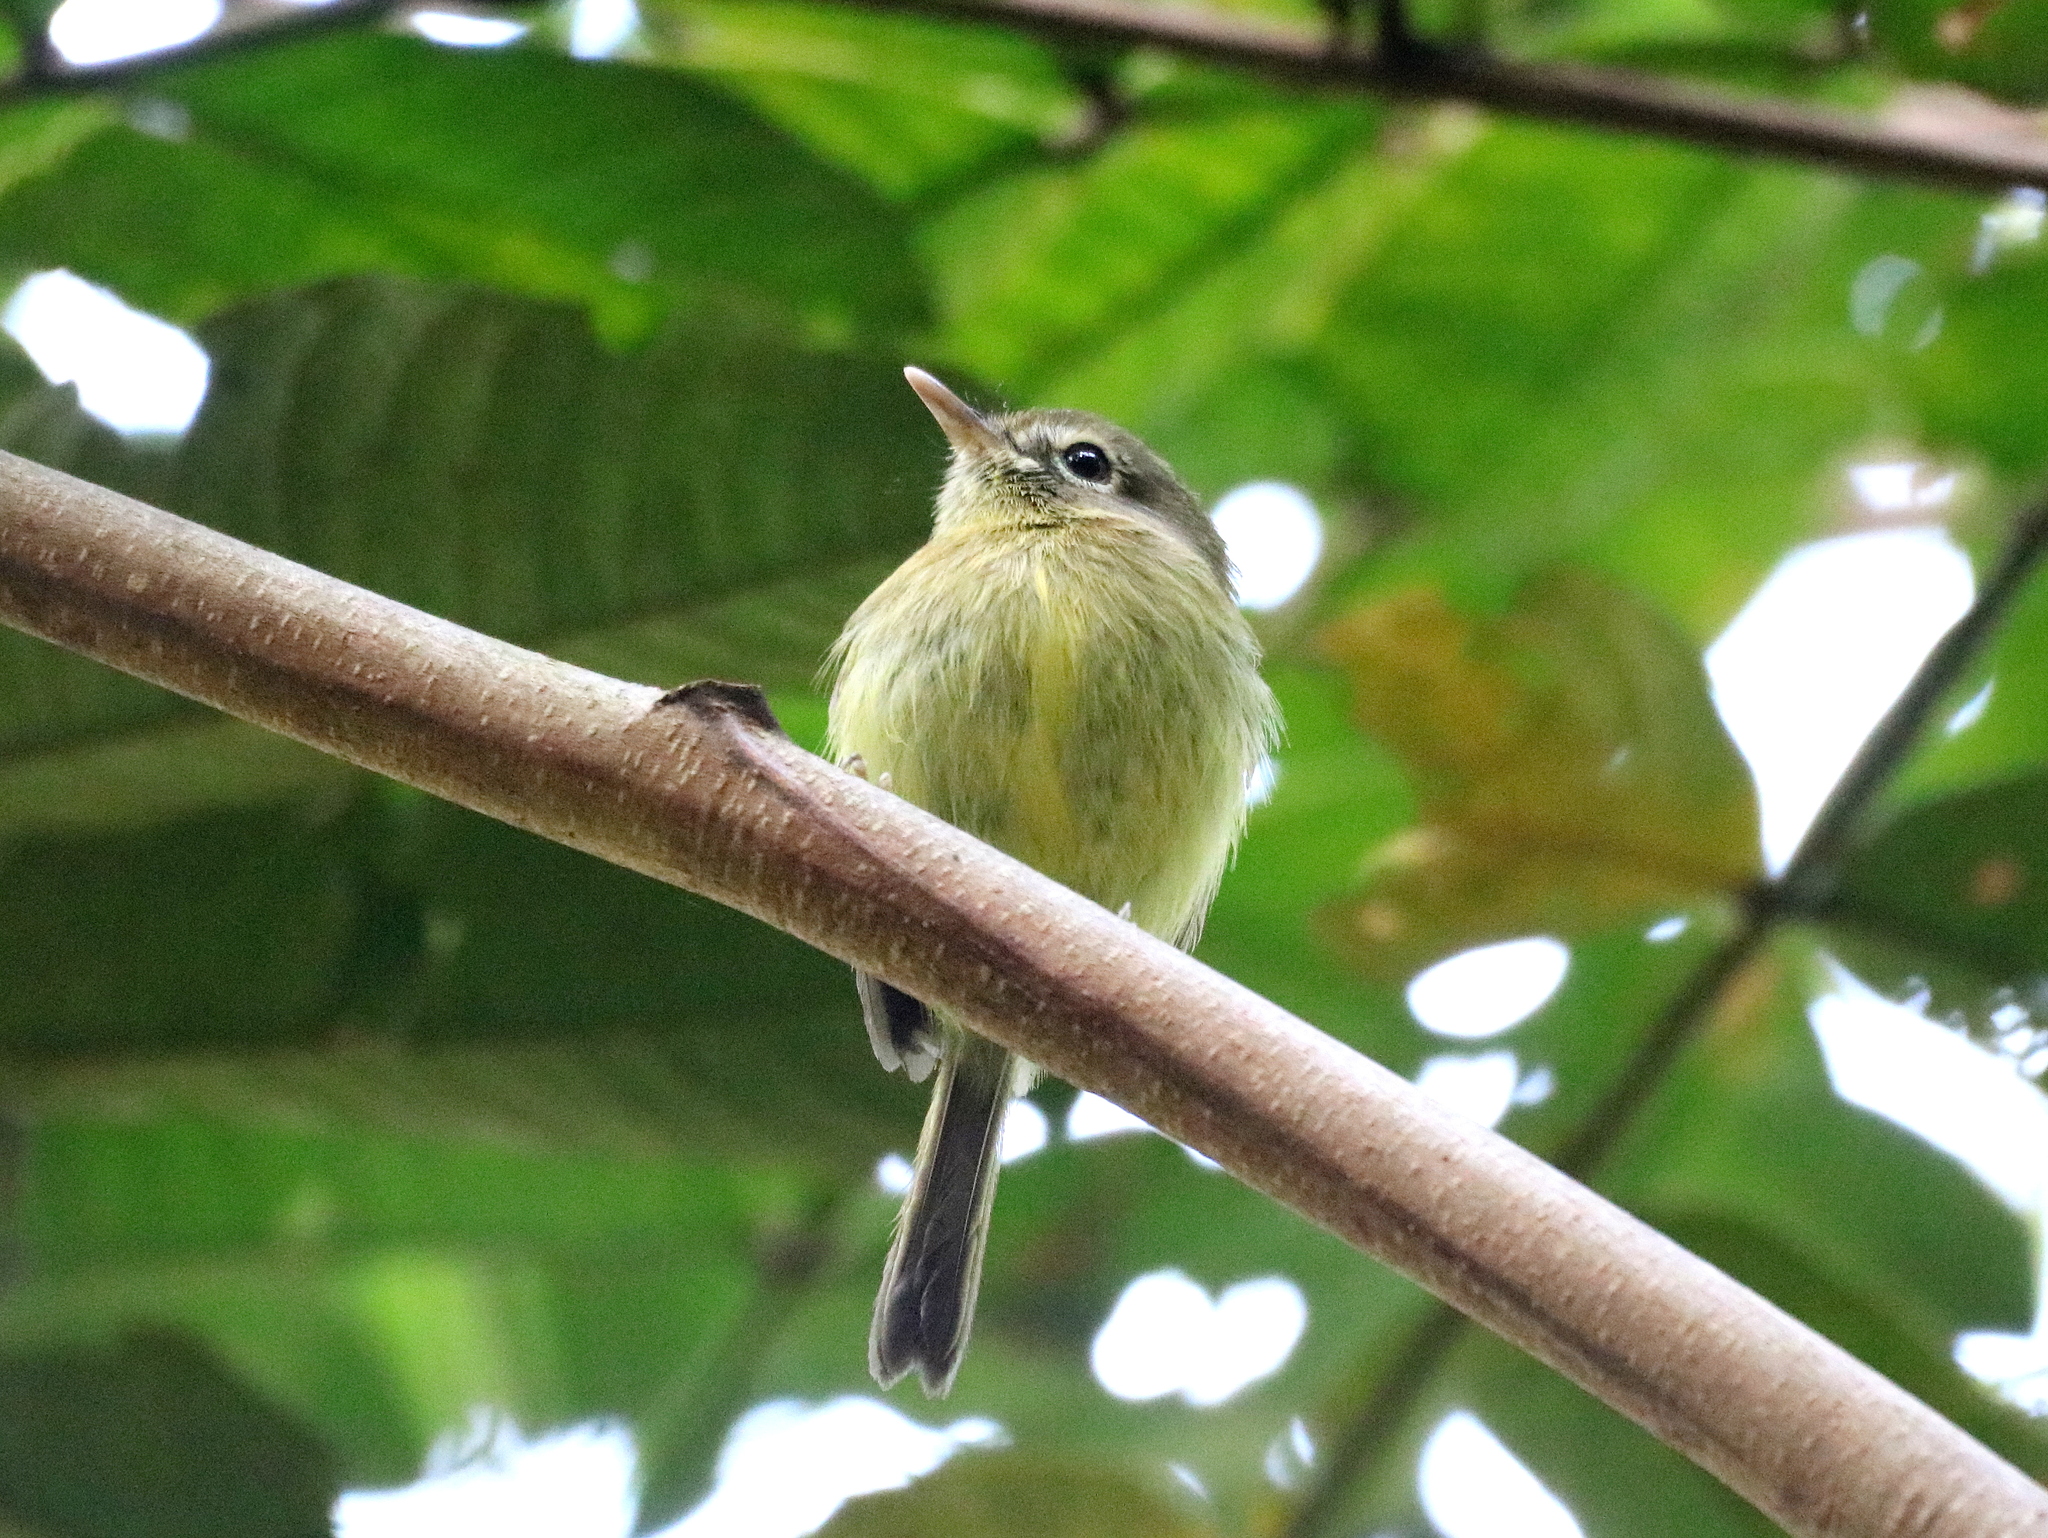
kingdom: Animalia
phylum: Chordata
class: Aves
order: Passeriformes
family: Tyrannidae
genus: Hemitriccus
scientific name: Hemitriccus orbitatus
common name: Eye-ringed tody-tyrant
